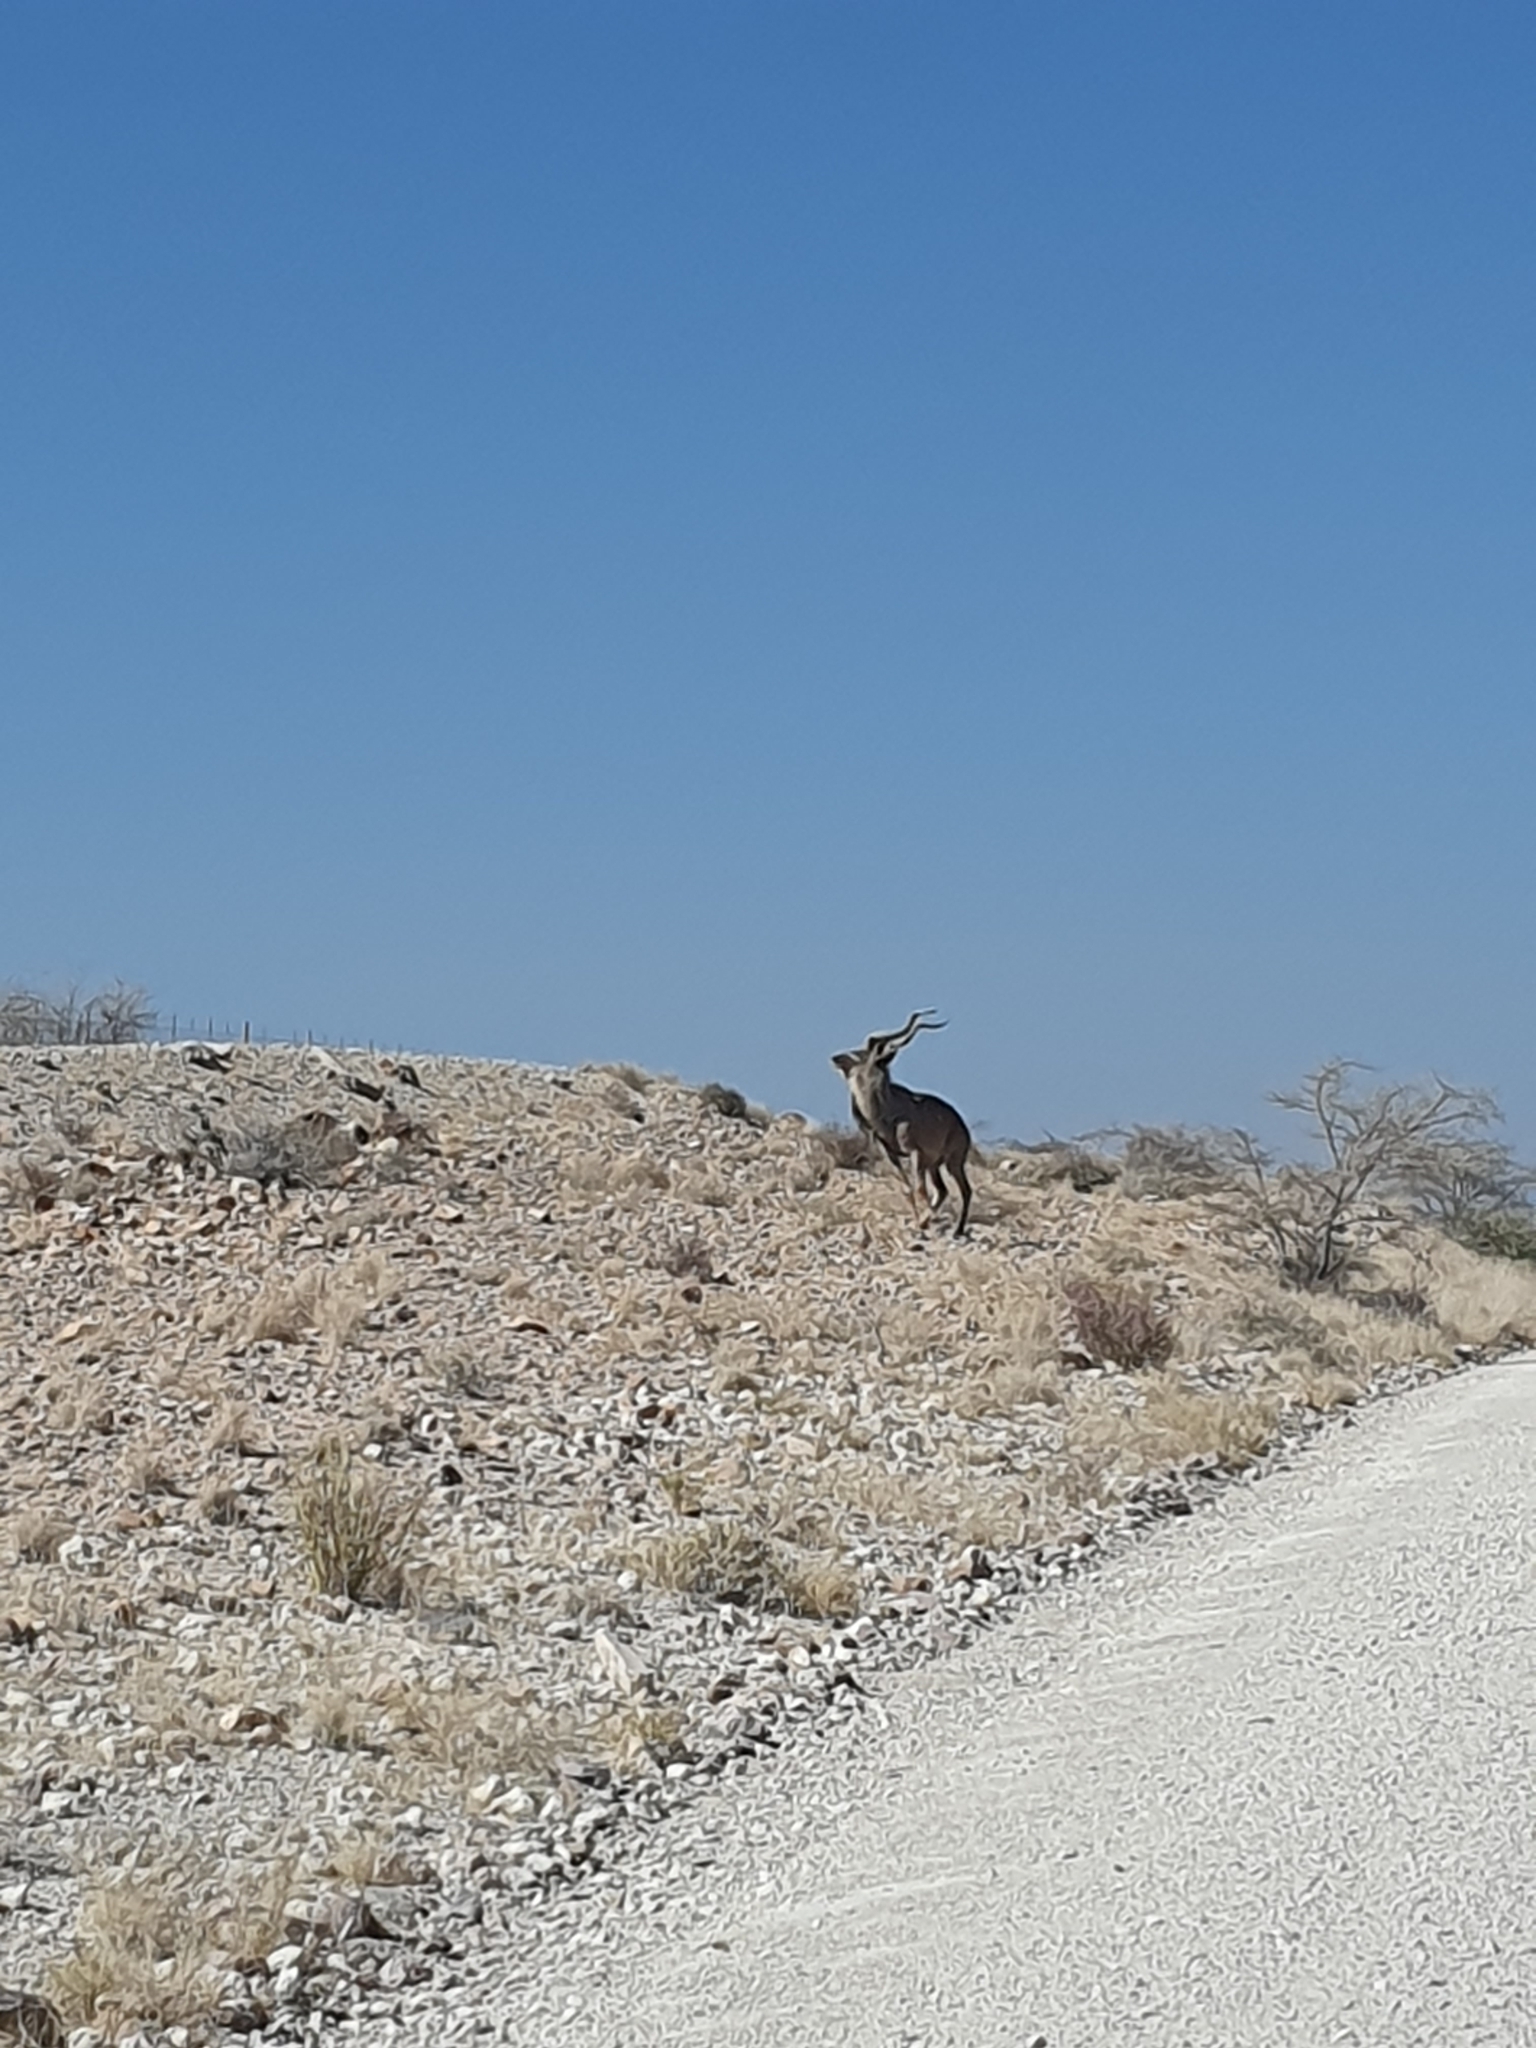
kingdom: Animalia
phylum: Chordata
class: Mammalia
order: Artiodactyla
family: Bovidae
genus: Tragelaphus
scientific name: Tragelaphus strepsiceros
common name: Greater kudu
